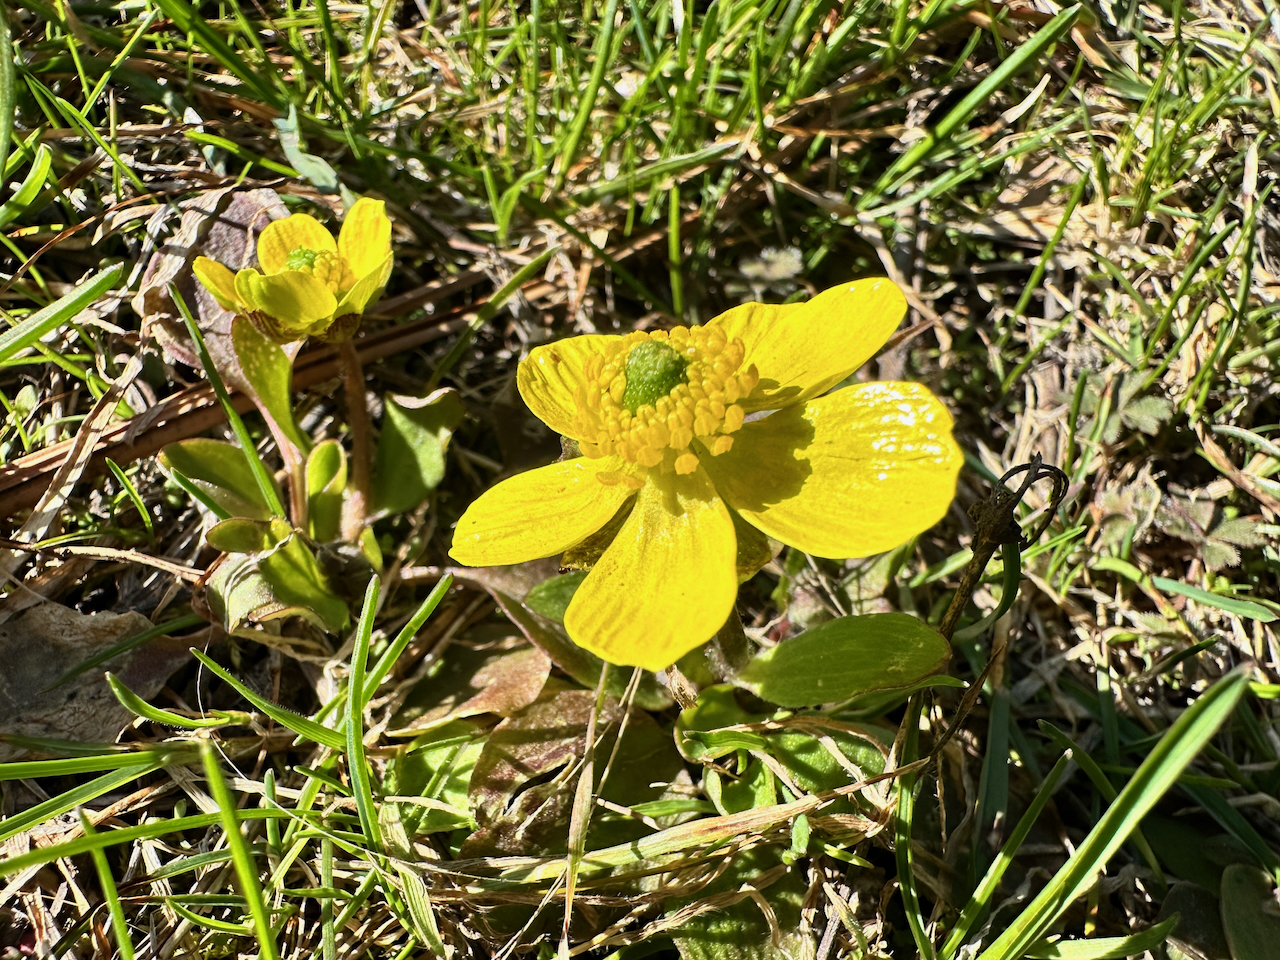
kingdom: Plantae
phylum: Tracheophyta
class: Magnoliopsida
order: Ranunculales
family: Ranunculaceae
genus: Ranunculus
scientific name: Ranunculus glaberrimus
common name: Sagebrush buttercup
